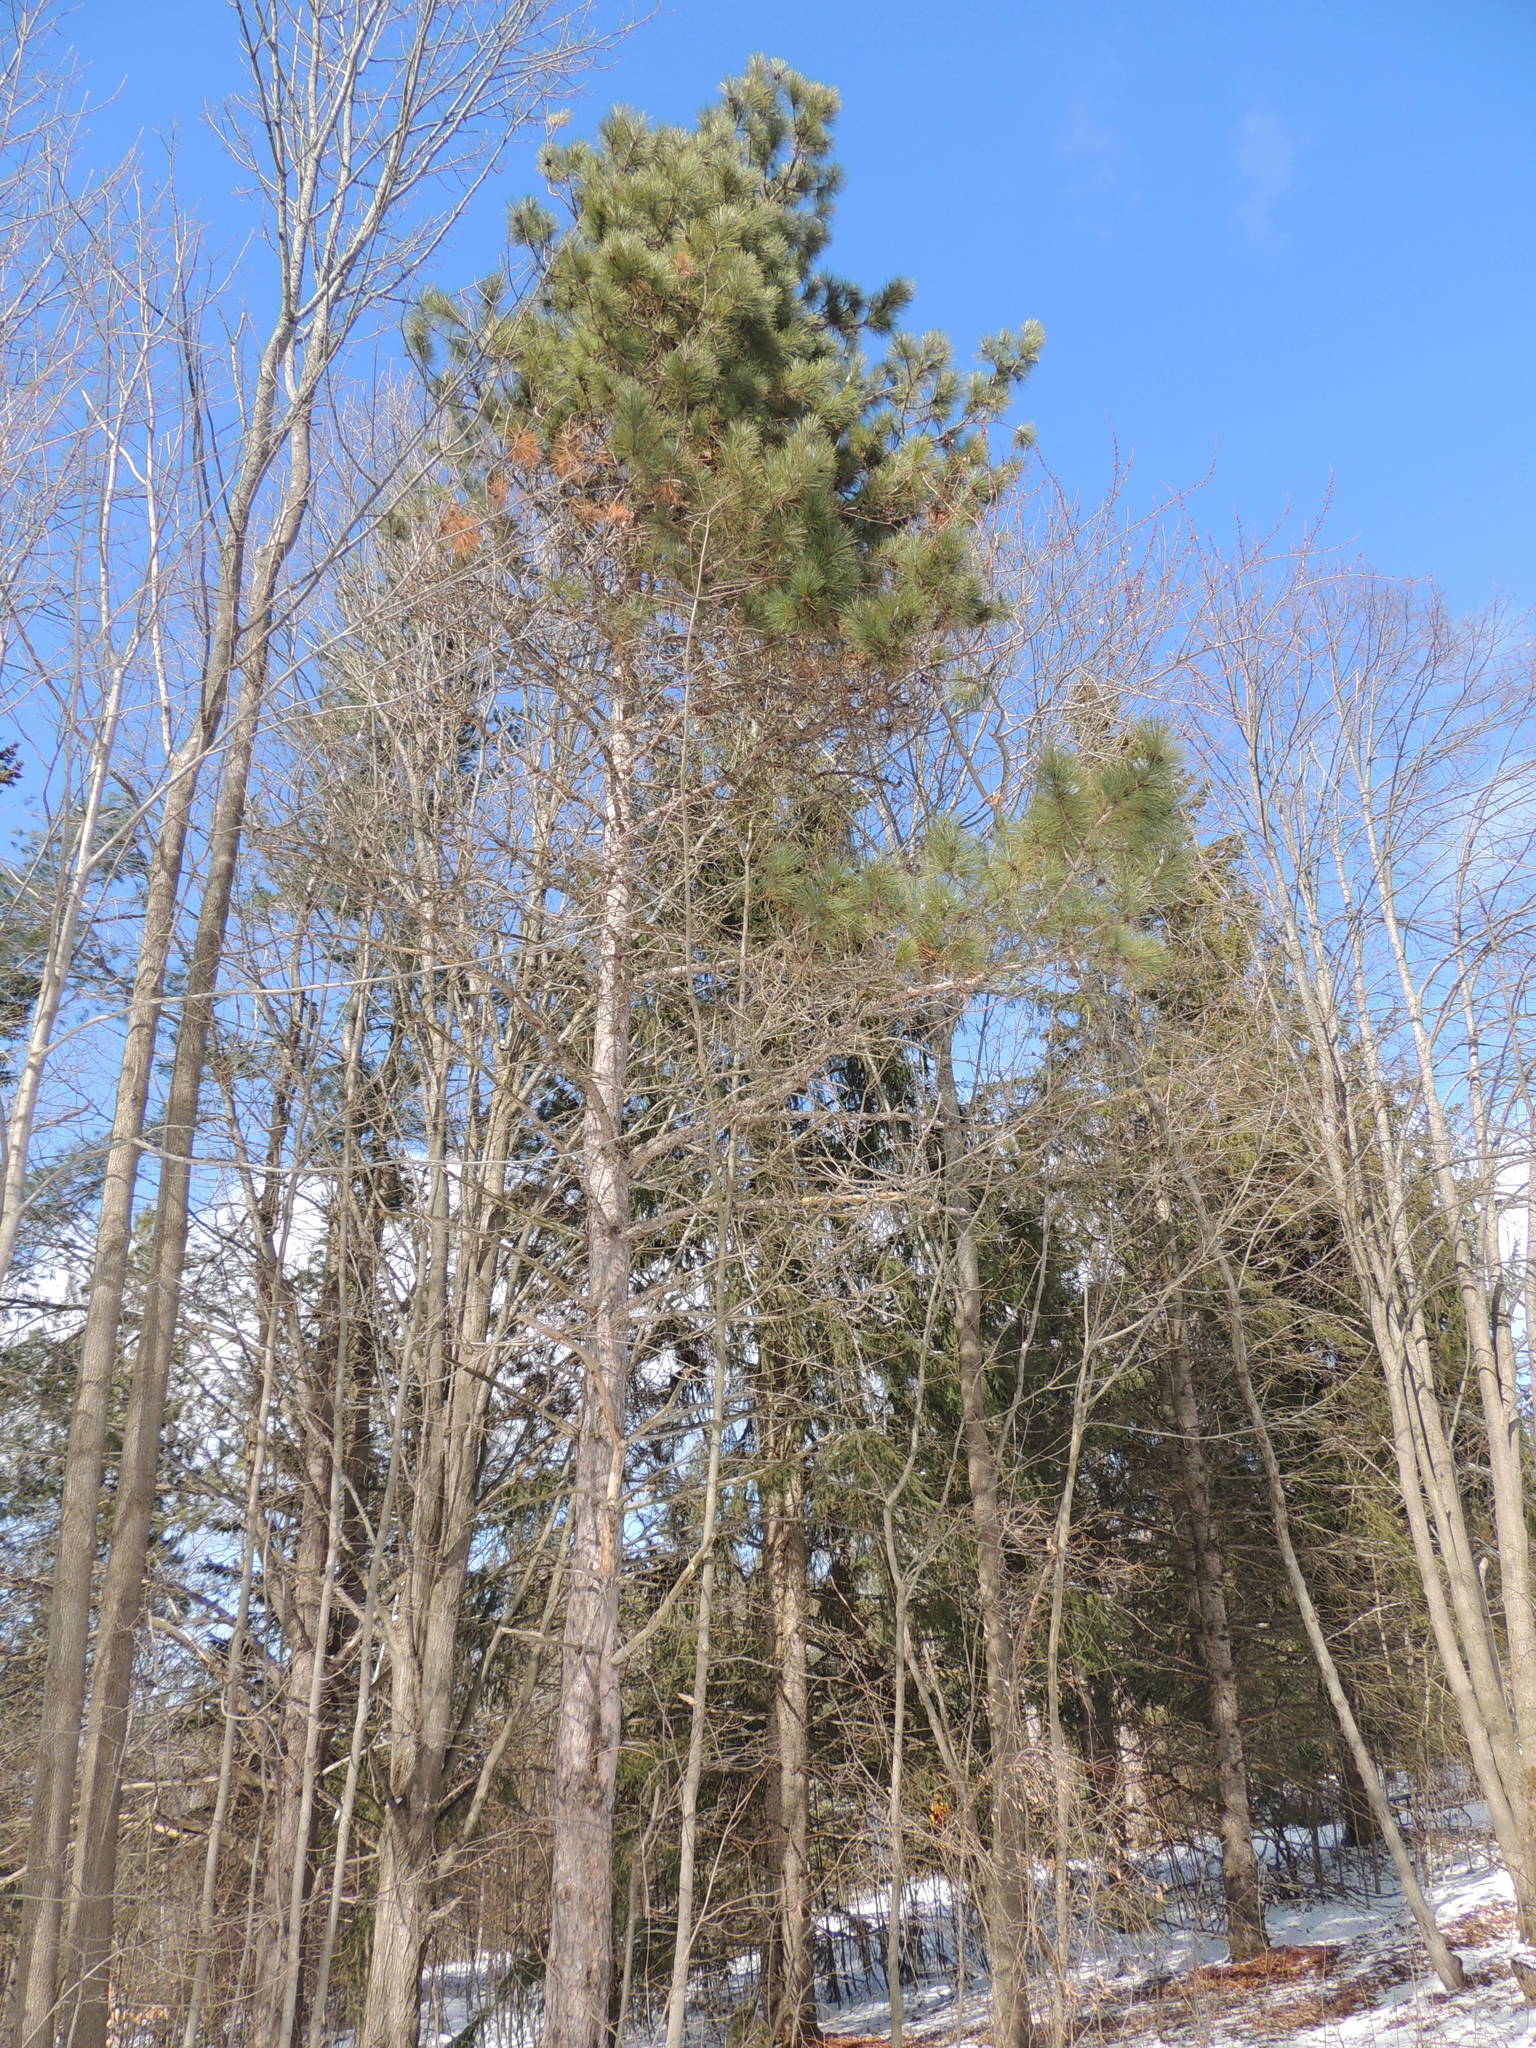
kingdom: Plantae
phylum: Tracheophyta
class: Pinopsida
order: Pinales
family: Pinaceae
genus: Pinus
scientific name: Pinus resinosa
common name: Norway pine
